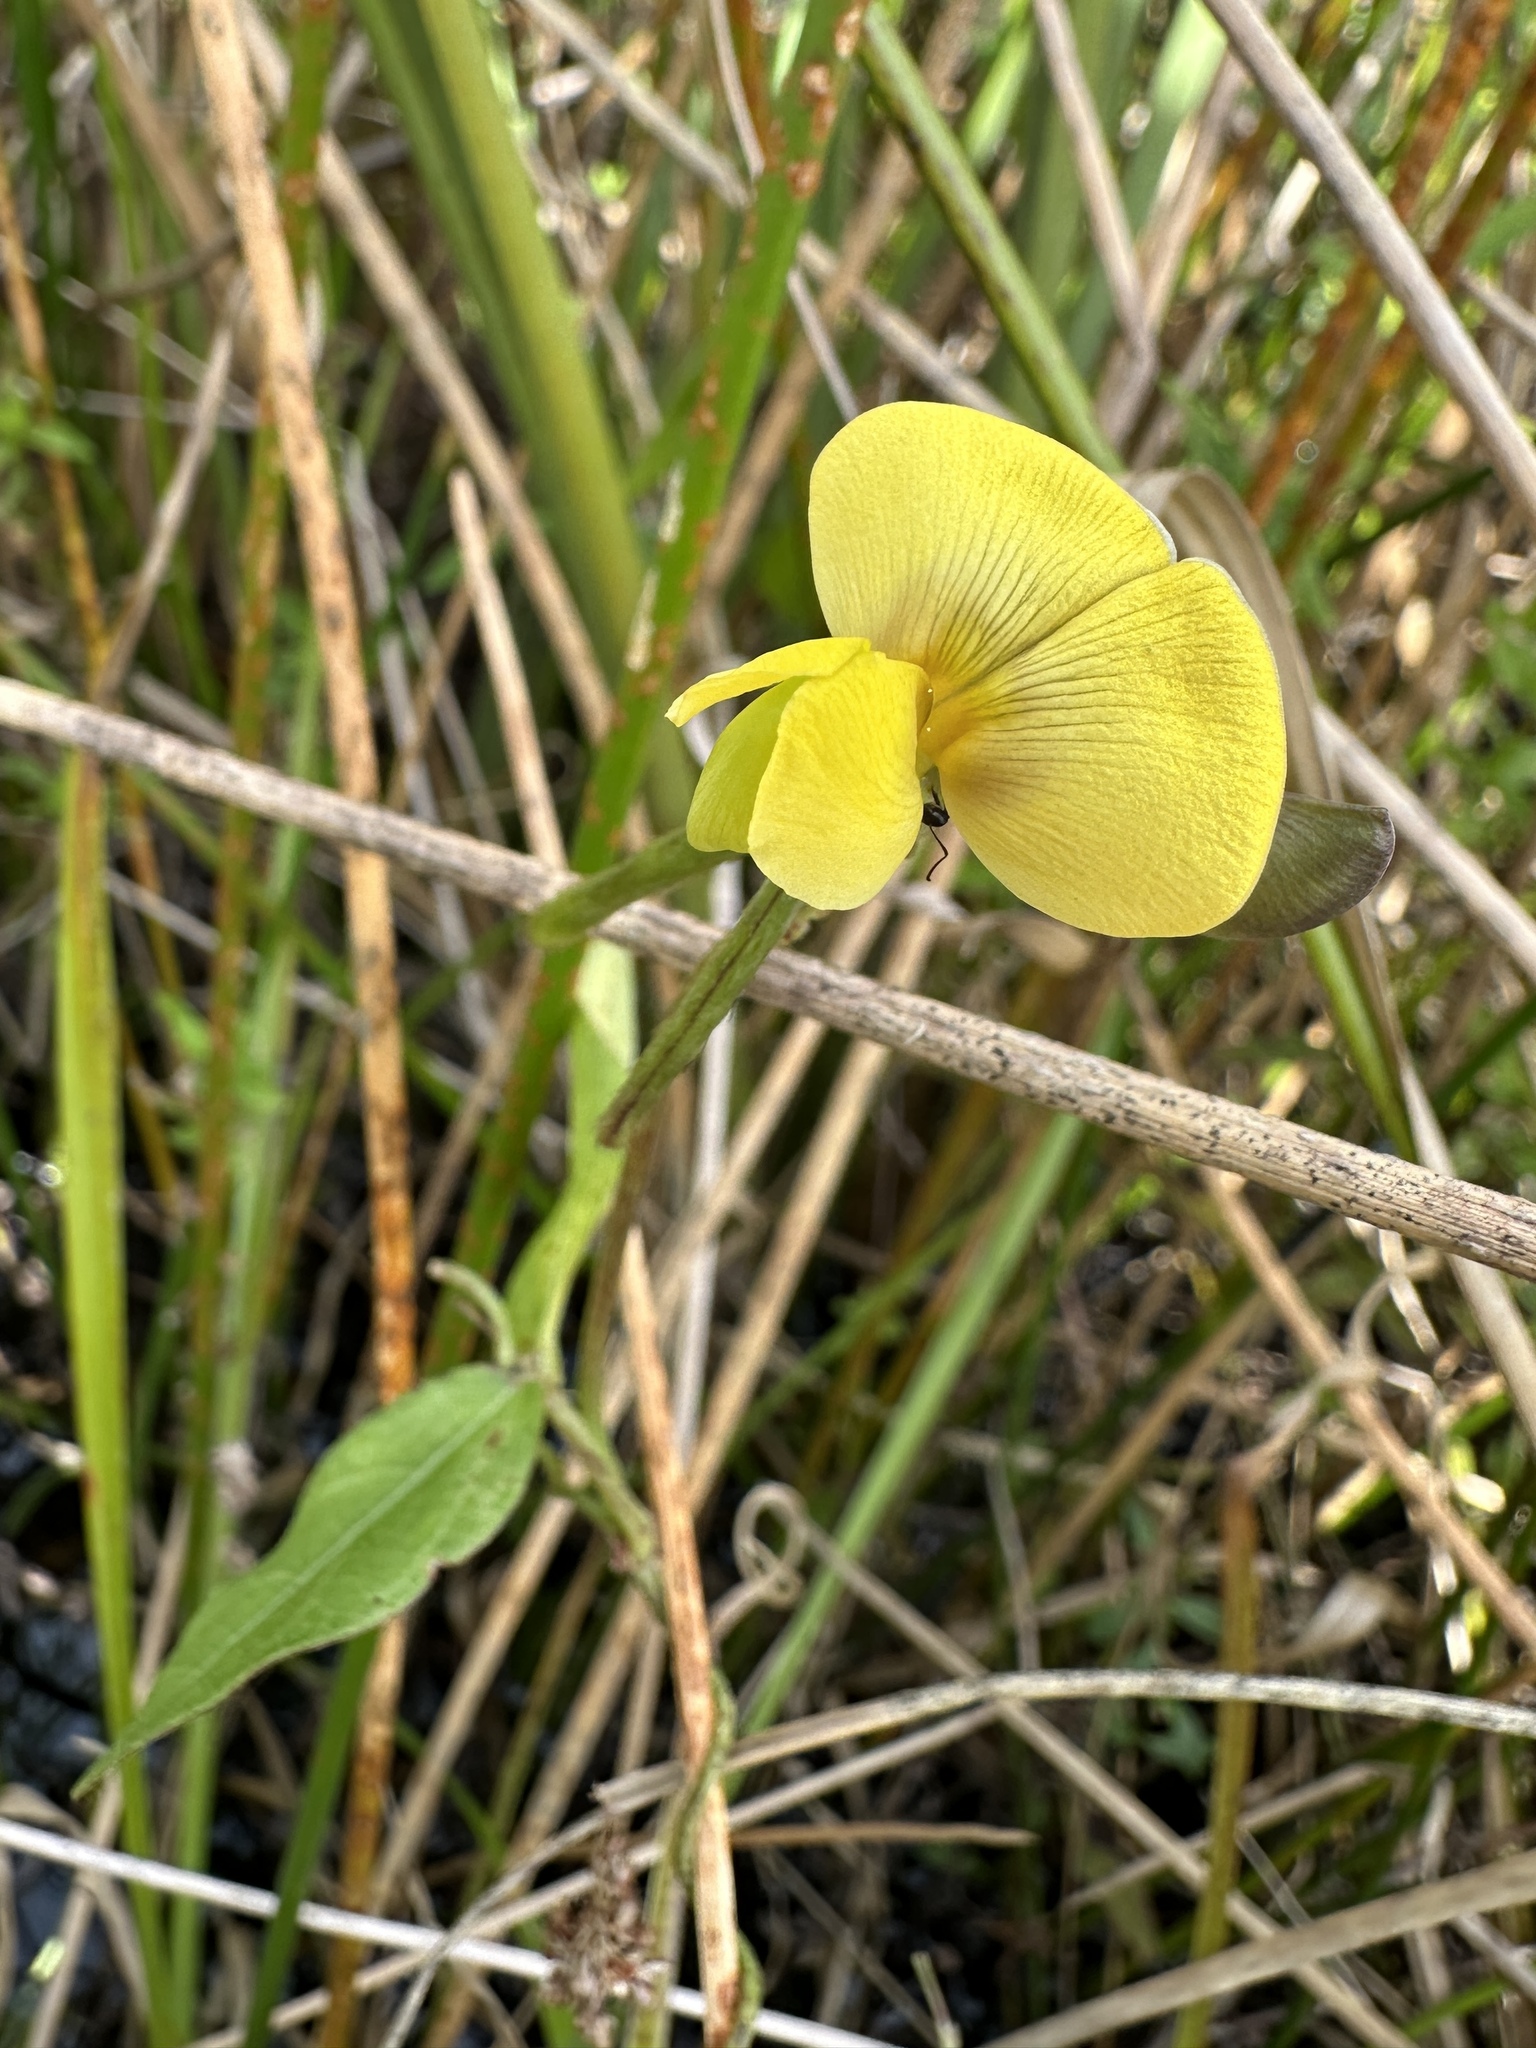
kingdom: Plantae
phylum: Tracheophyta
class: Magnoliopsida
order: Fabales
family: Fabaceae
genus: Vigna
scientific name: Vigna luteola
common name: Hairypod cowpea
